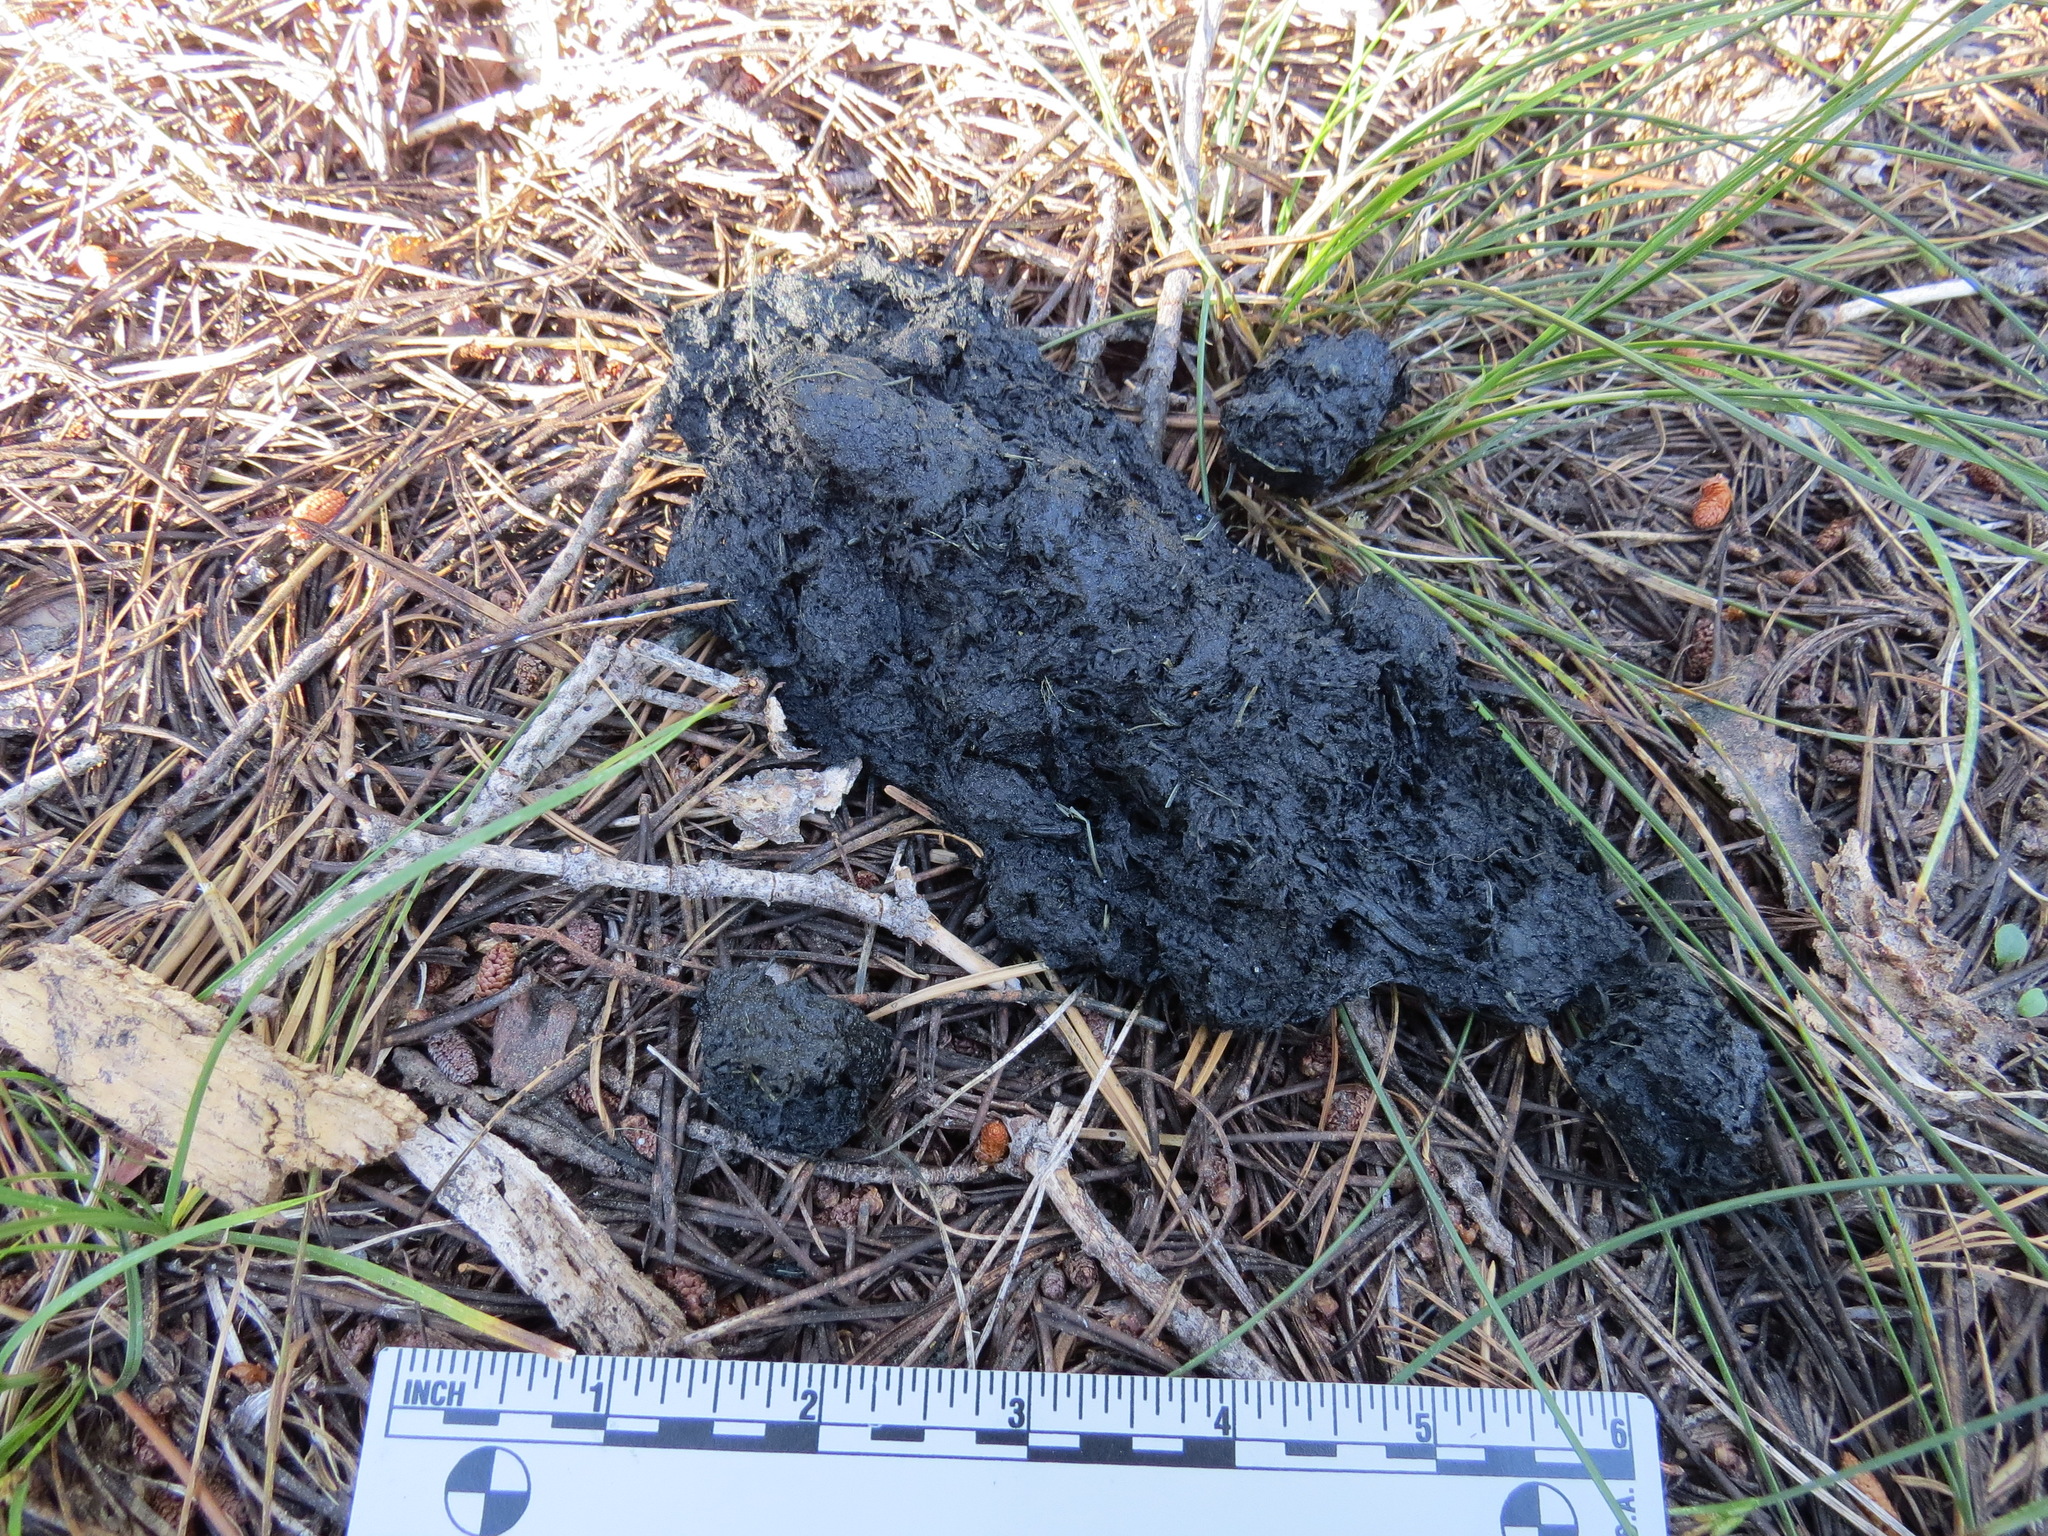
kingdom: Animalia
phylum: Chordata
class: Mammalia
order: Carnivora
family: Ursidae
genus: Ursus
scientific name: Ursus americanus
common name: American black bear
